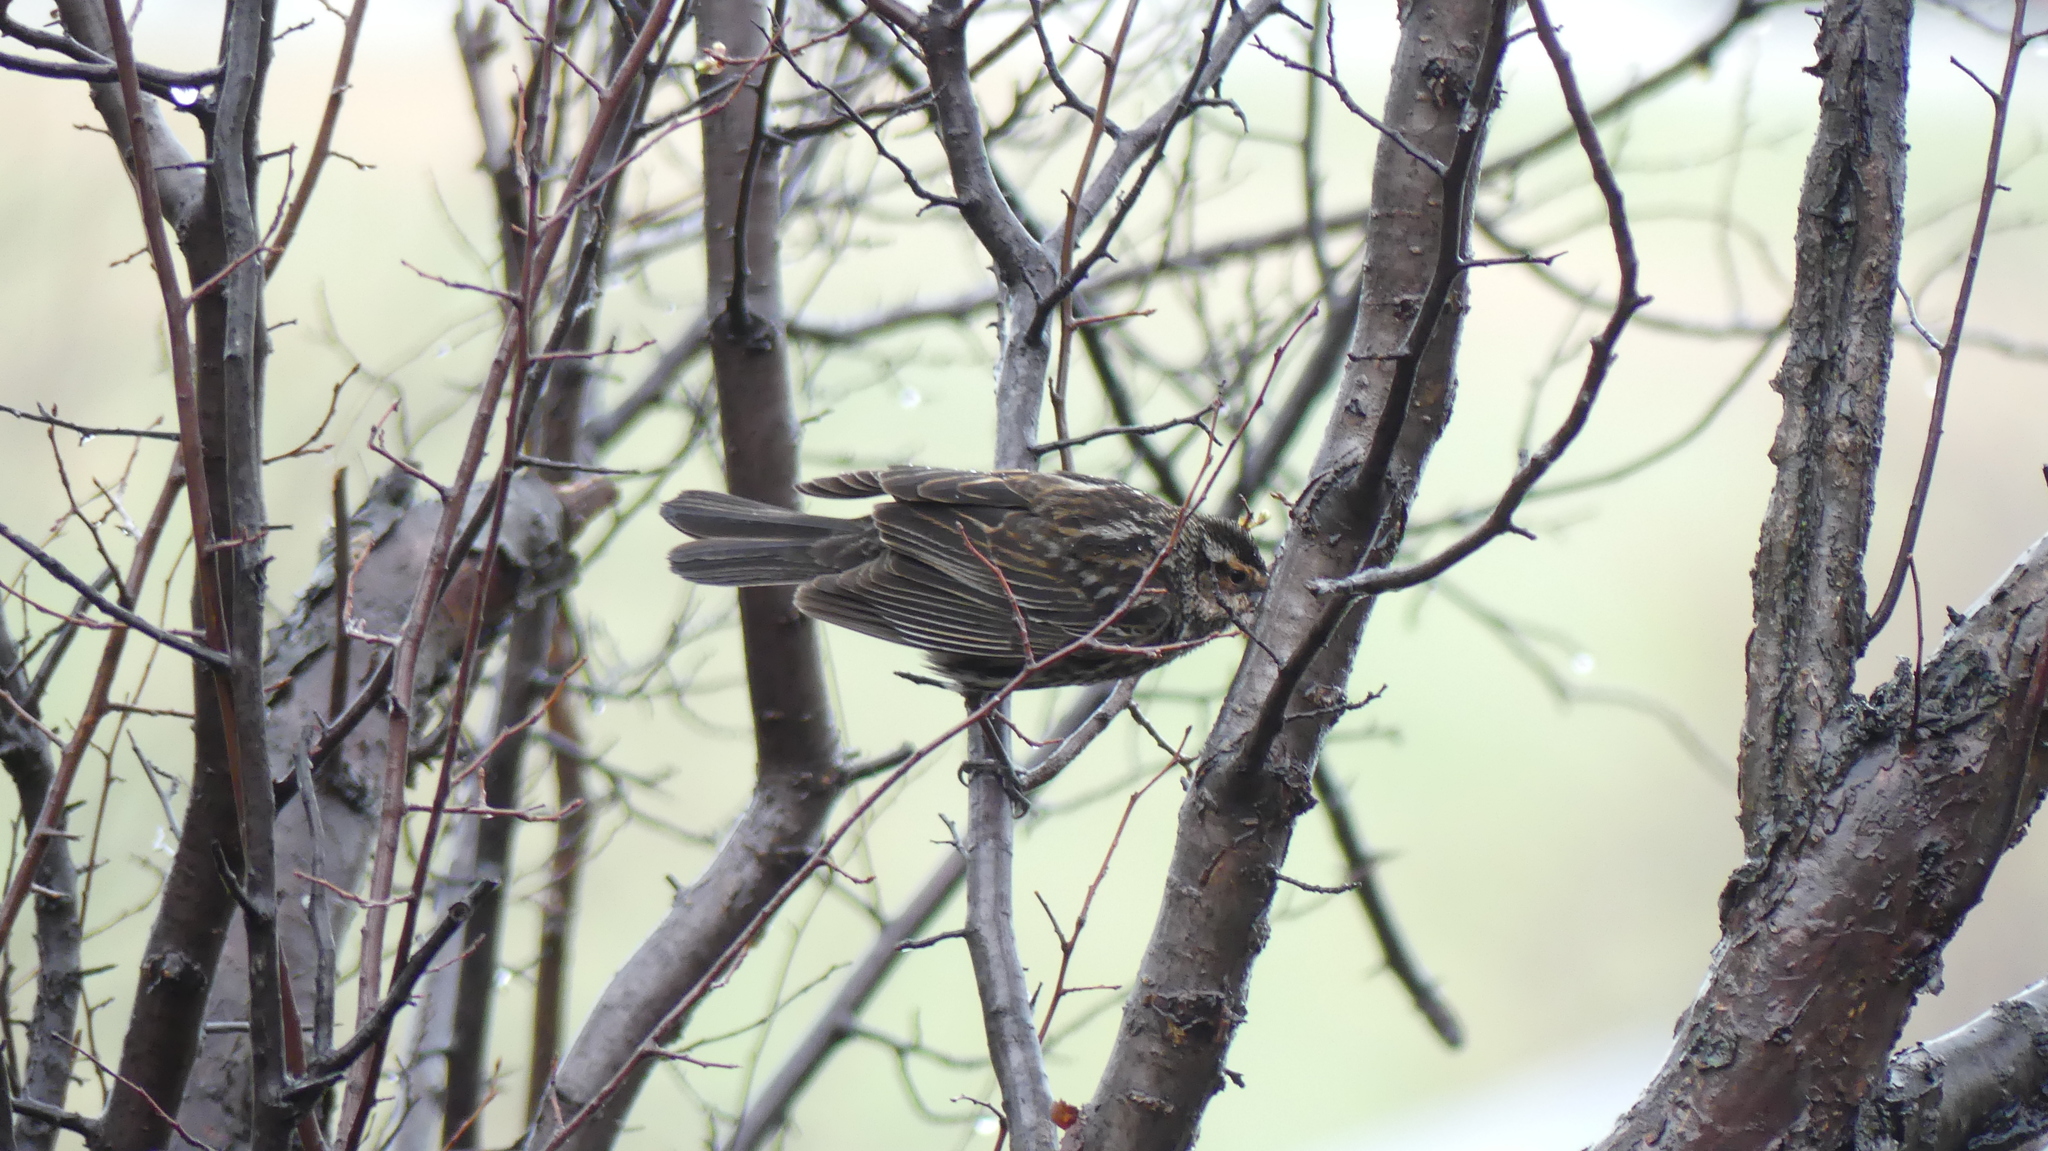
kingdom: Animalia
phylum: Chordata
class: Aves
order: Passeriformes
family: Icteridae
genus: Agelaius
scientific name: Agelaius phoeniceus
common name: Red-winged blackbird
